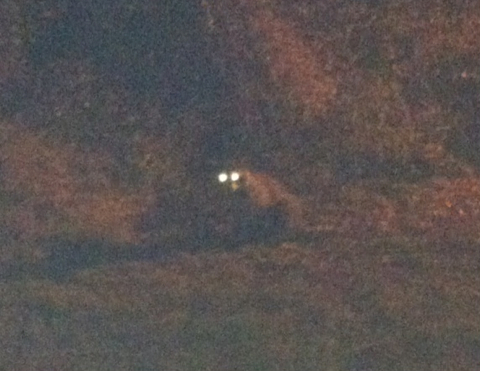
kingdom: Animalia
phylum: Chordata
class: Mammalia
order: Carnivora
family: Procyonidae
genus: Procyon
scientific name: Procyon lotor
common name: Raccoon
